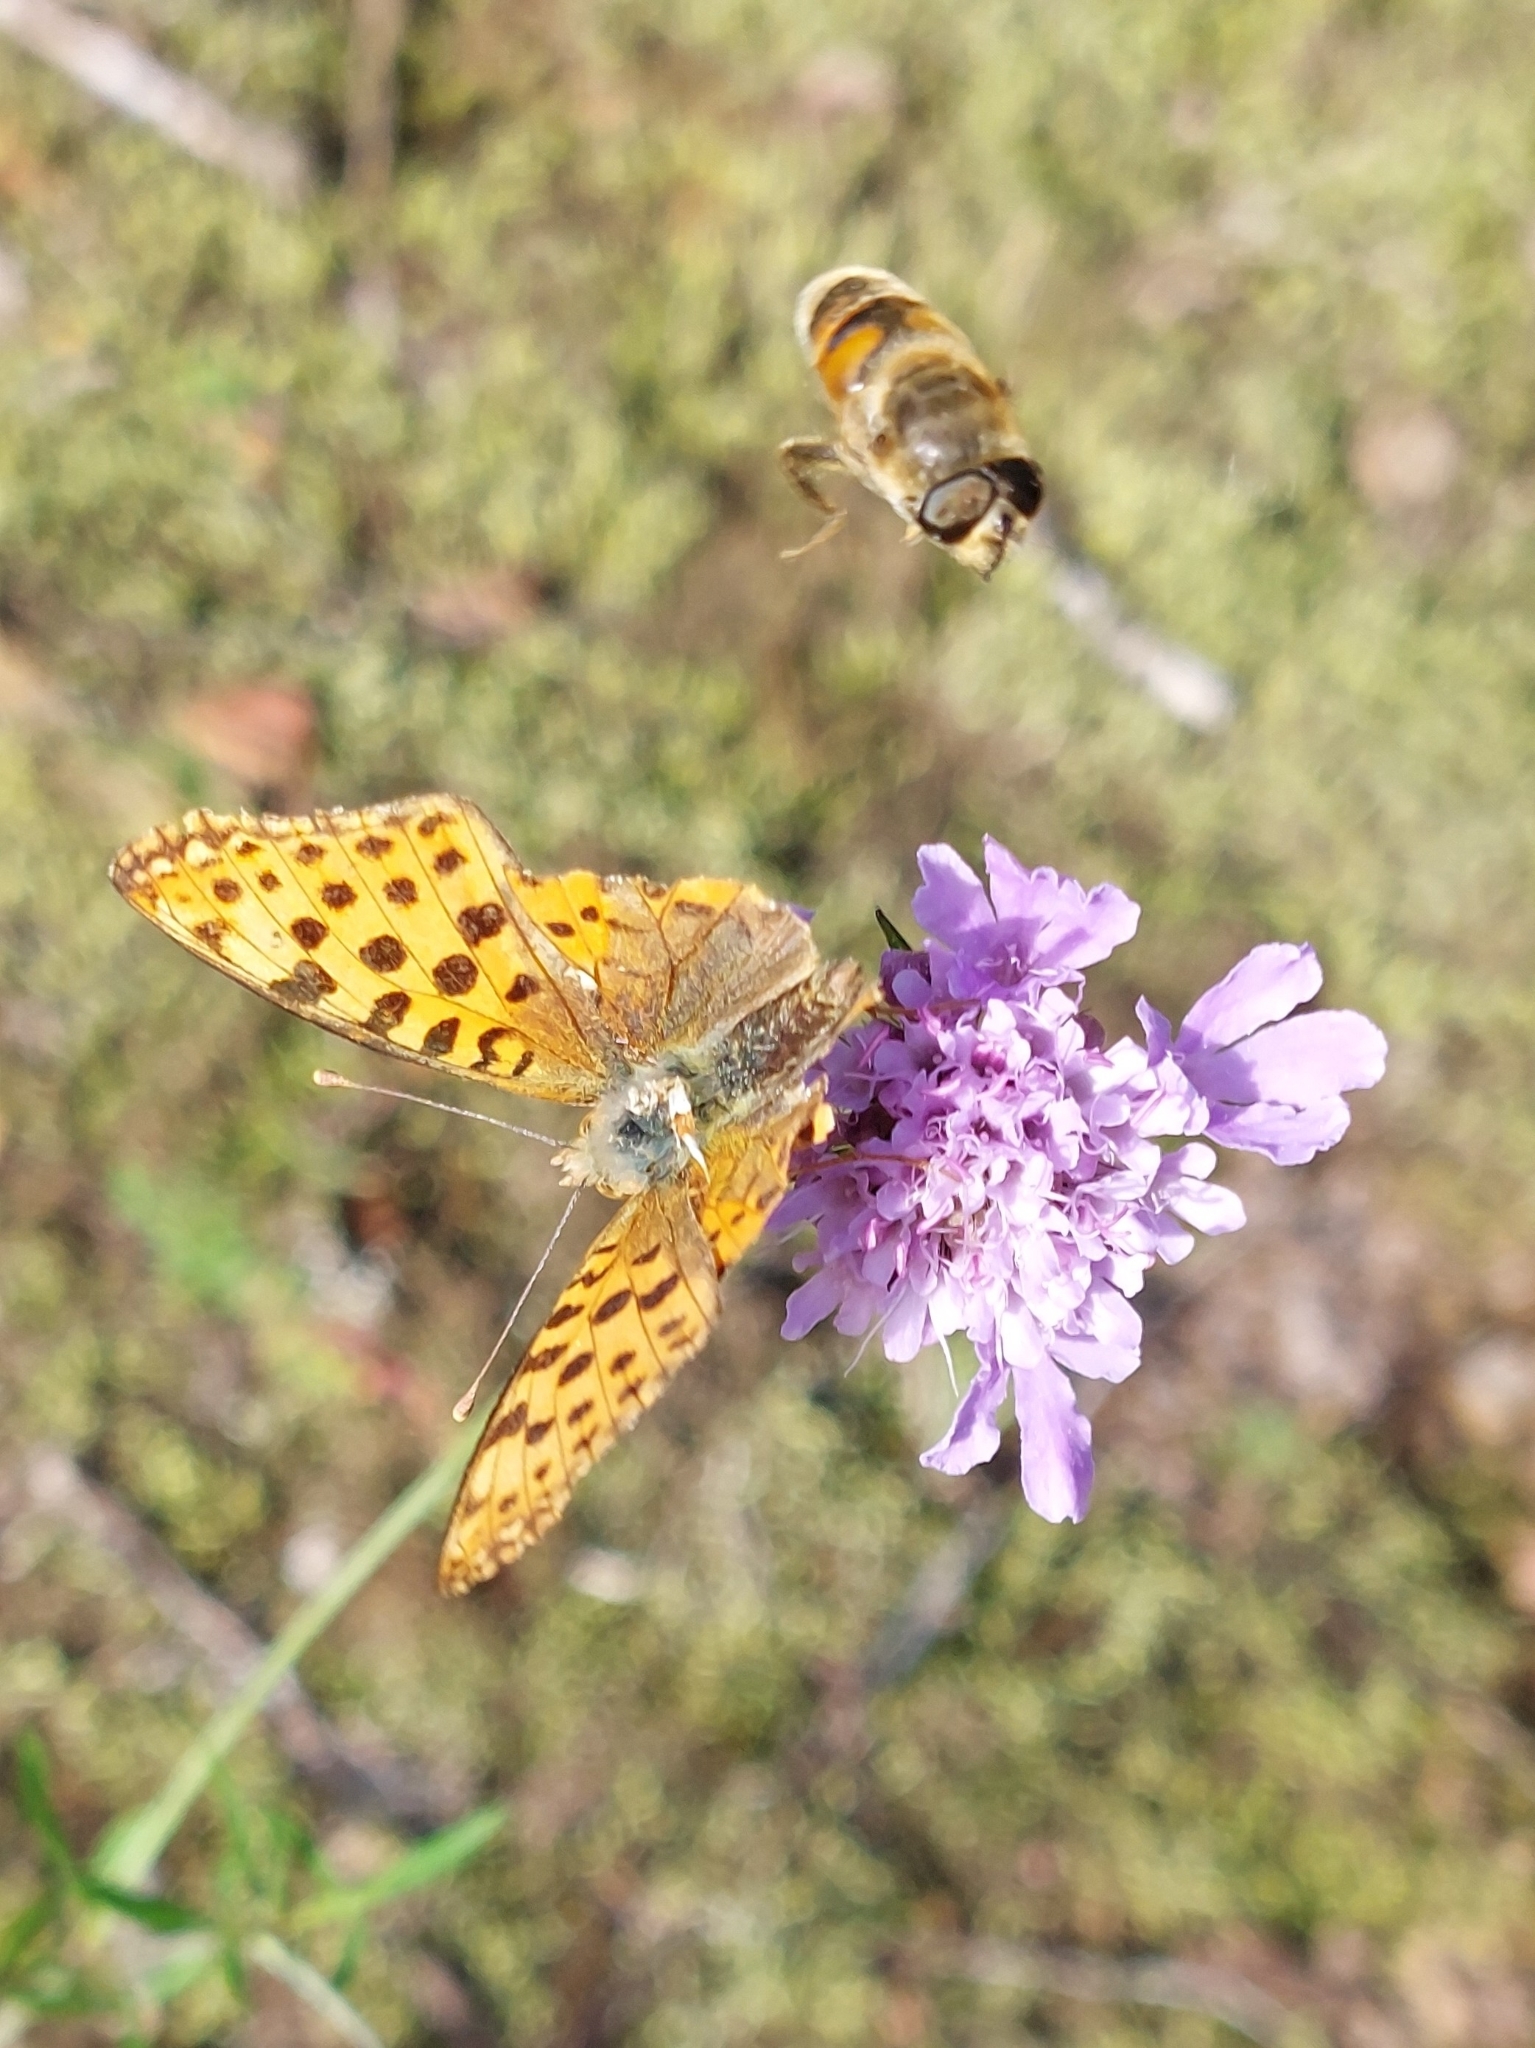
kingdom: Animalia
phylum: Arthropoda
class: Insecta
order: Lepidoptera
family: Nymphalidae
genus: Issoria
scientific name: Issoria lathonia
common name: Queen of spain fritillary
